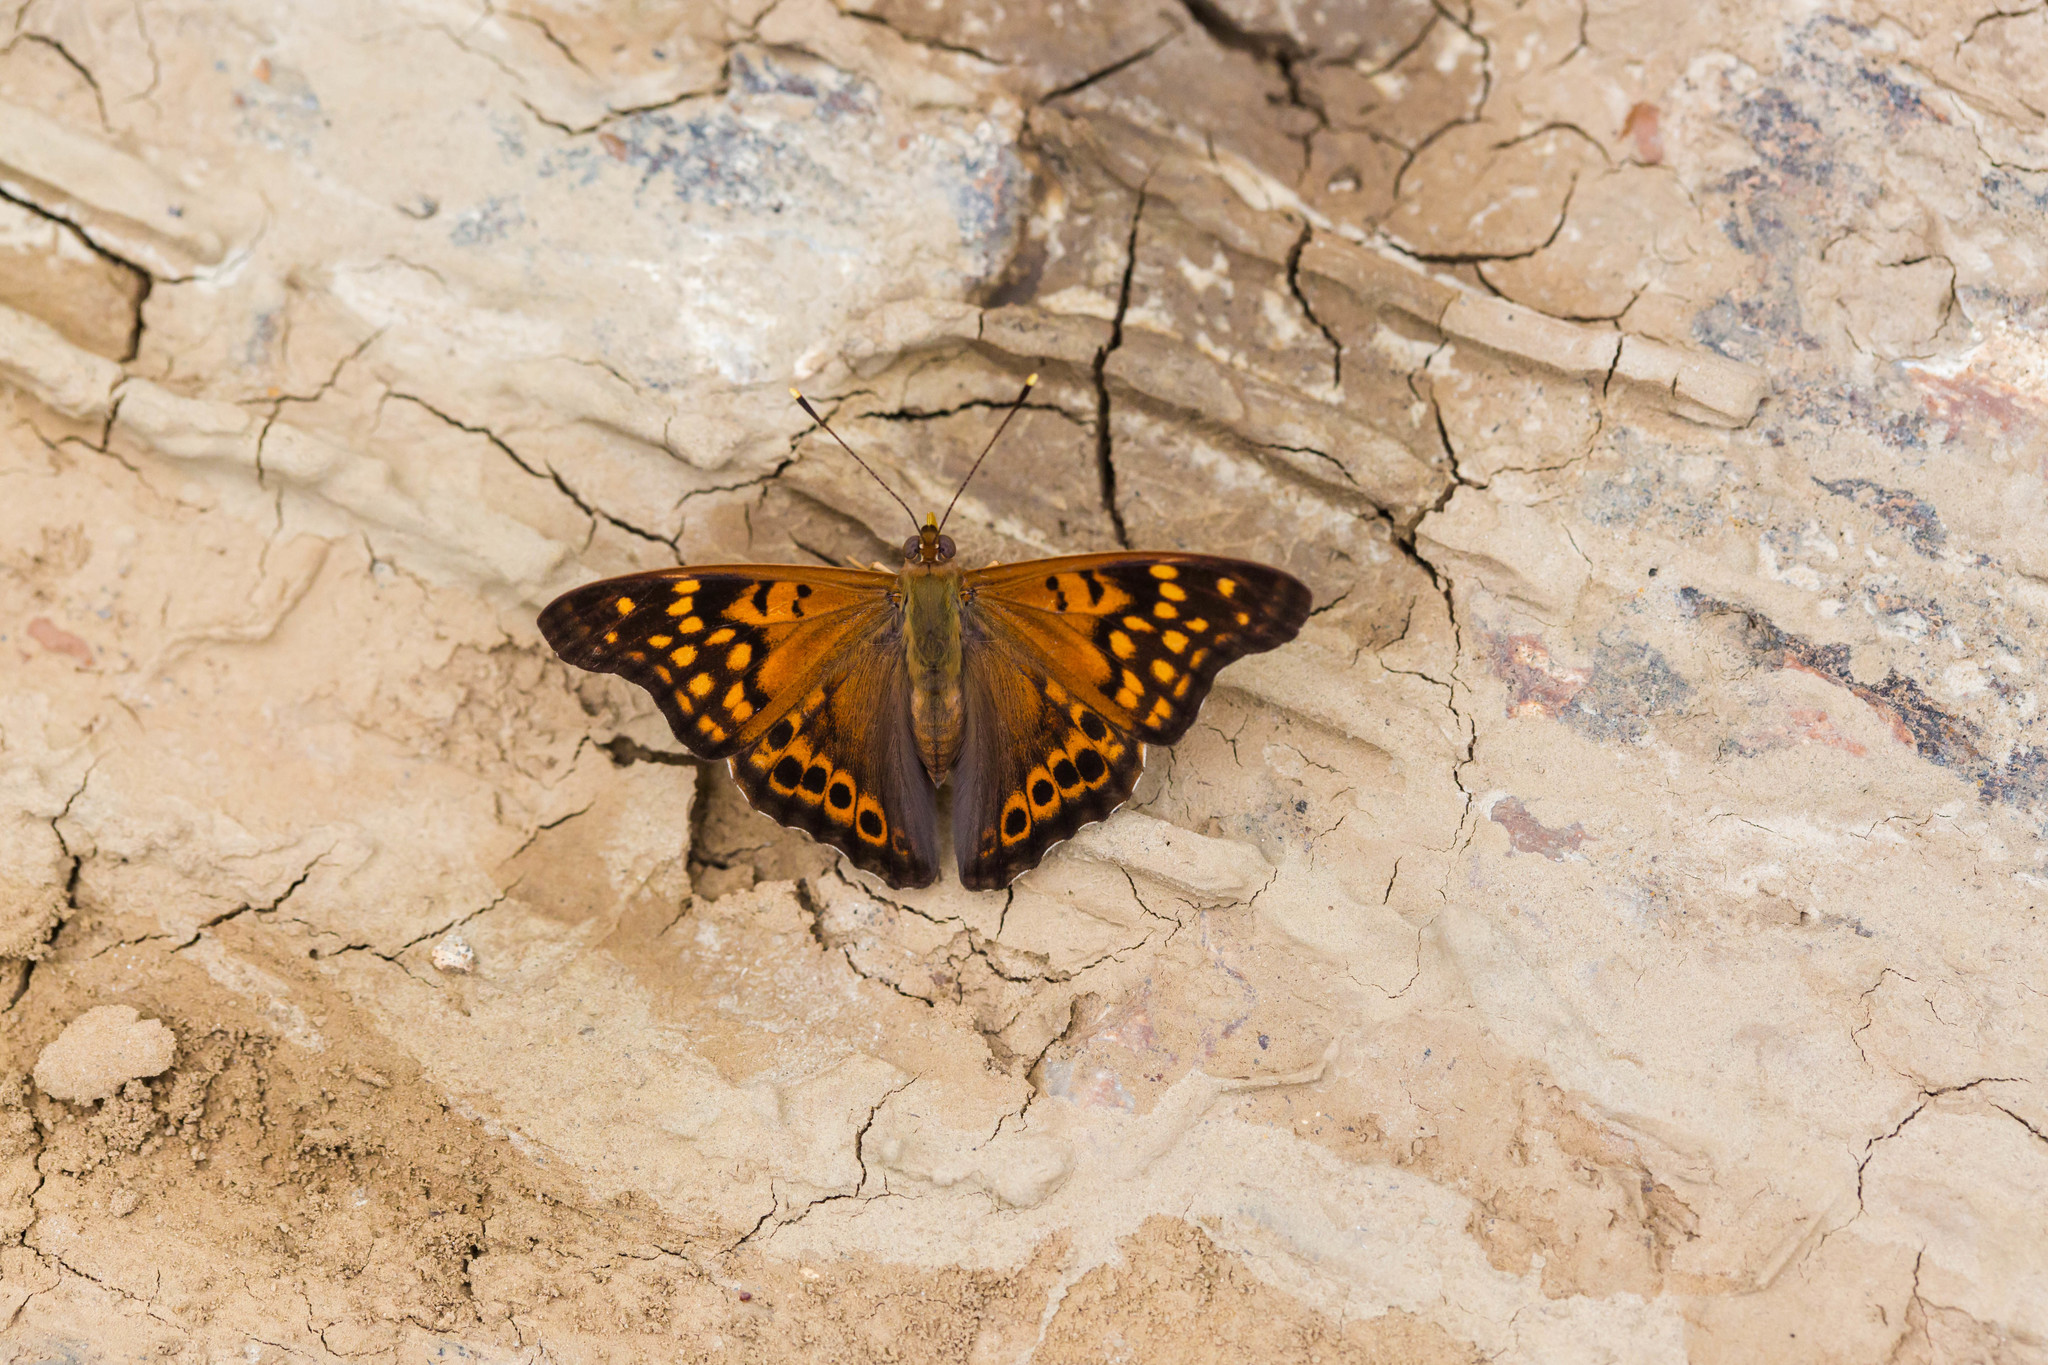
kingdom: Animalia
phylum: Arthropoda
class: Insecta
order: Lepidoptera
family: Nymphalidae
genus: Asterocampa
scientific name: Asterocampa clyton
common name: Tawny emperor
